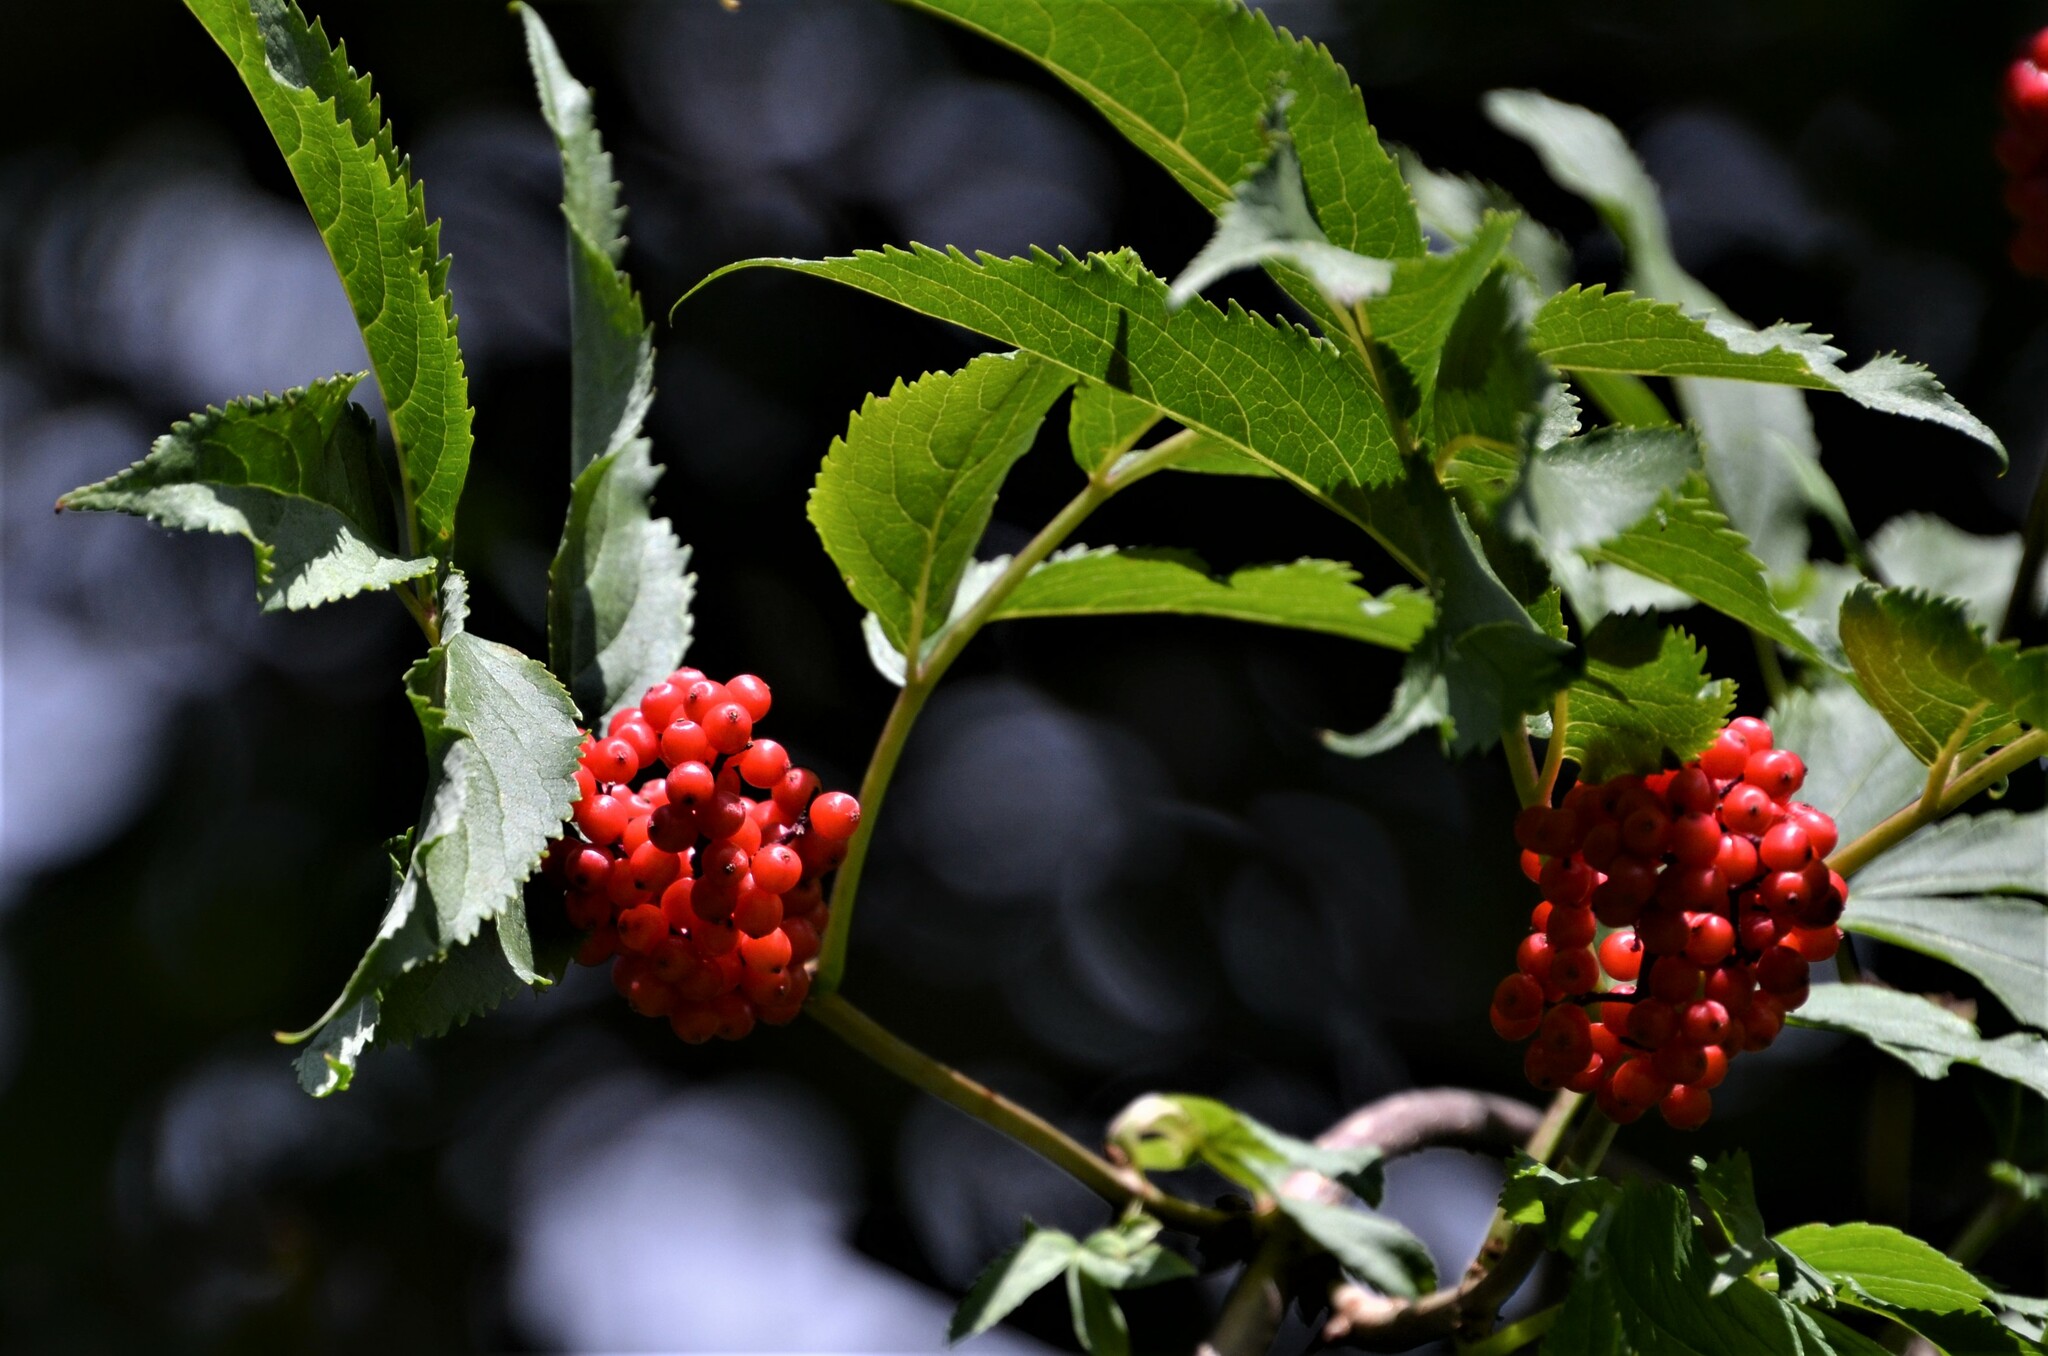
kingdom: Plantae
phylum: Tracheophyta
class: Magnoliopsida
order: Dipsacales
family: Viburnaceae
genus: Sambucus
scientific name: Sambucus racemosa
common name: Red-berried elder
